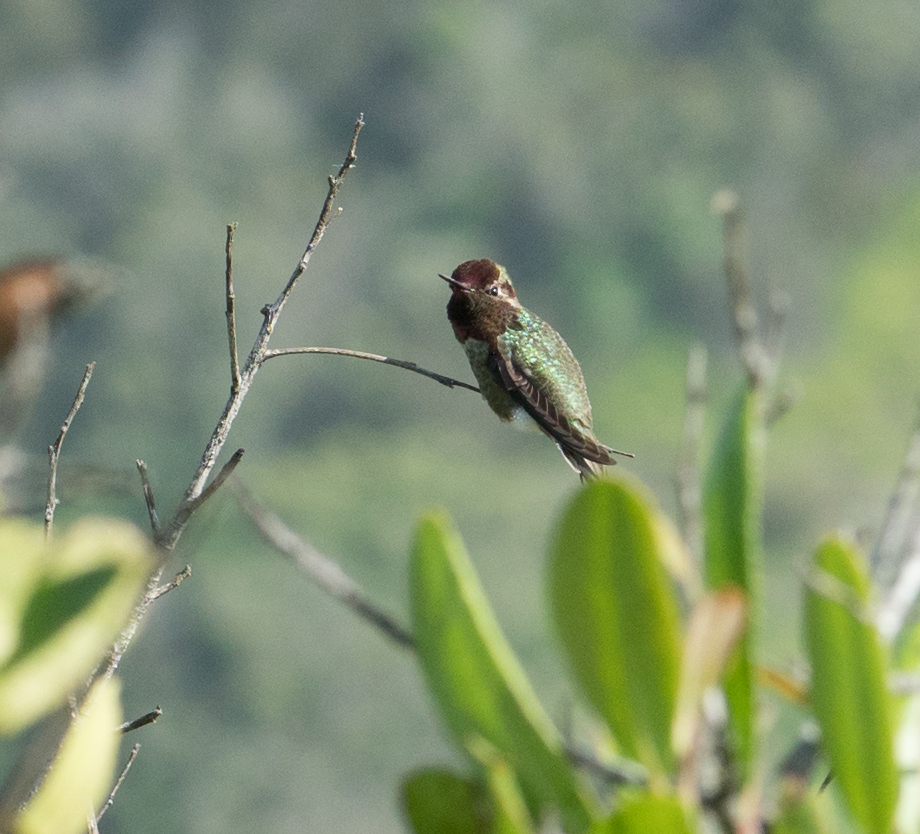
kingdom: Animalia
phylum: Chordata
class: Aves
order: Apodiformes
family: Trochilidae
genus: Calypte
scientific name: Calypte anna
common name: Anna's hummingbird
